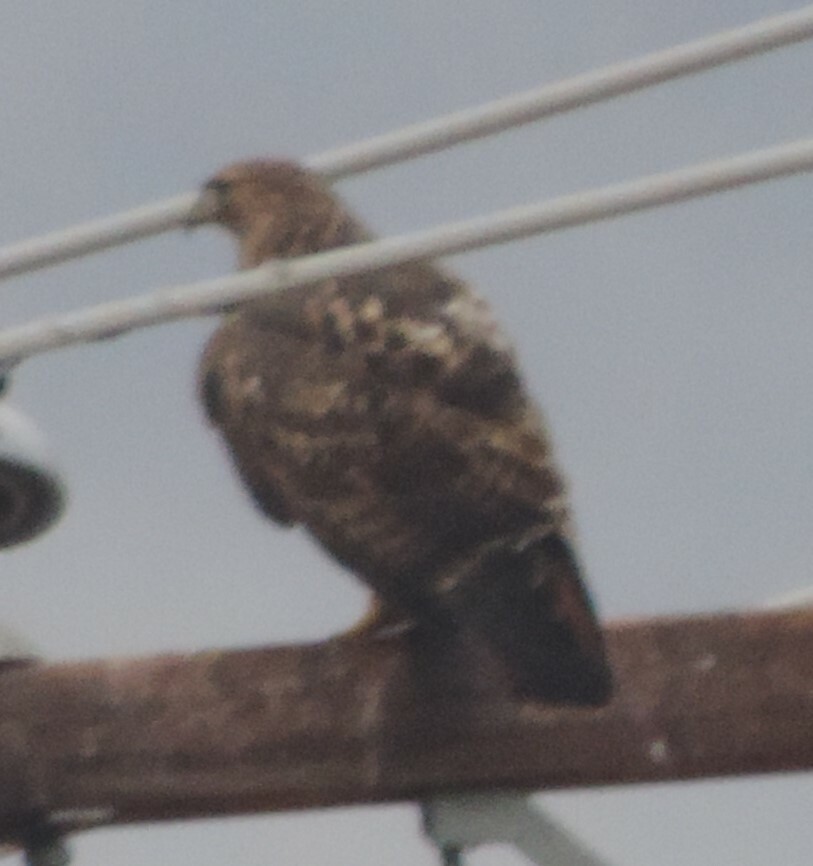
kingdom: Animalia
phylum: Chordata
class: Aves
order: Accipitriformes
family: Accipitridae
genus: Buteo
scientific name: Buteo jamaicensis
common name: Red-tailed hawk
